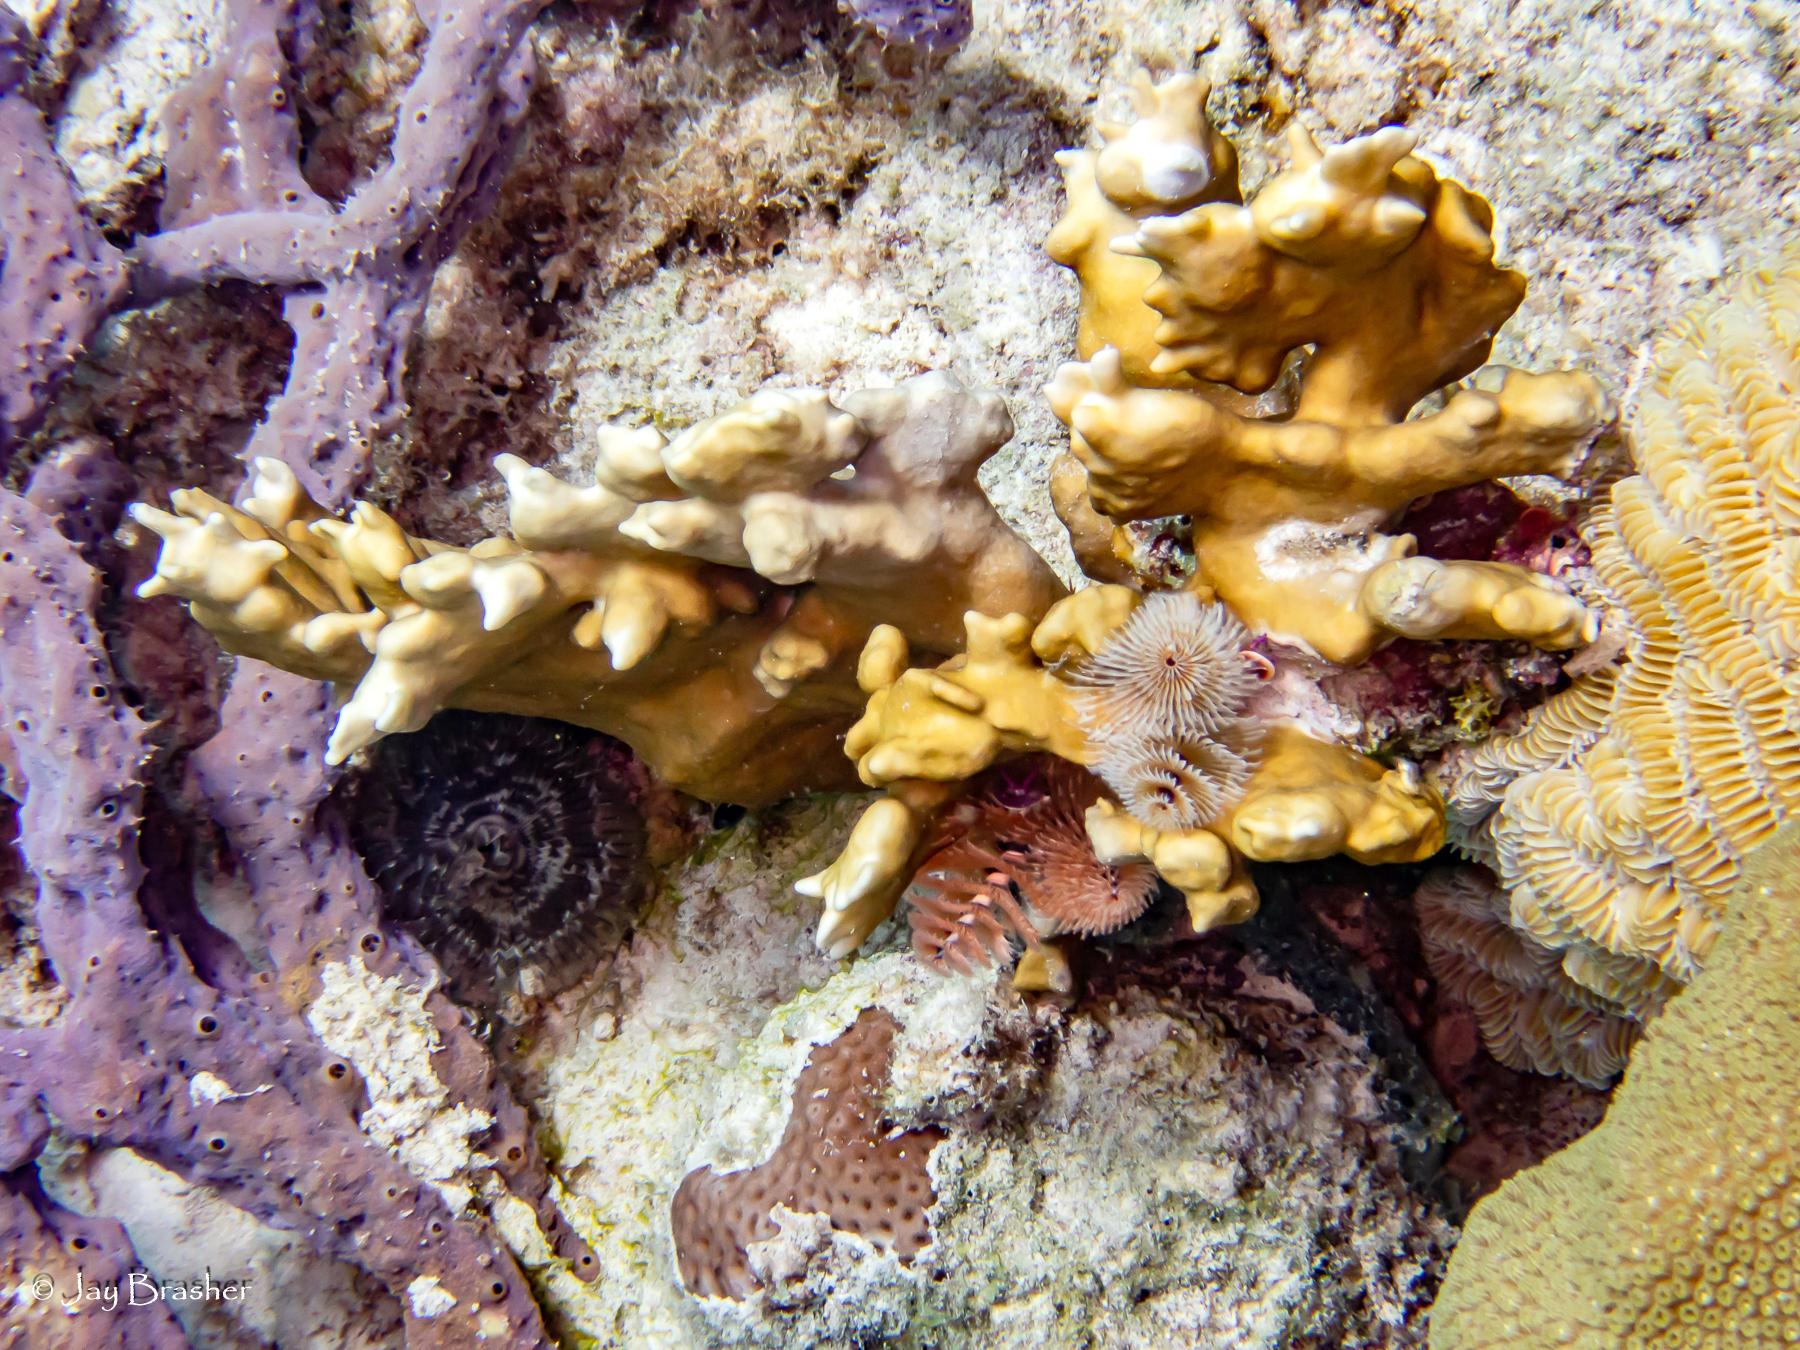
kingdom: Animalia
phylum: Porifera
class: Demospongiae
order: Verongiida
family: Aplysinidae
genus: Aplysina
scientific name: Aplysina cauliformis
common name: Branching candle sponge
